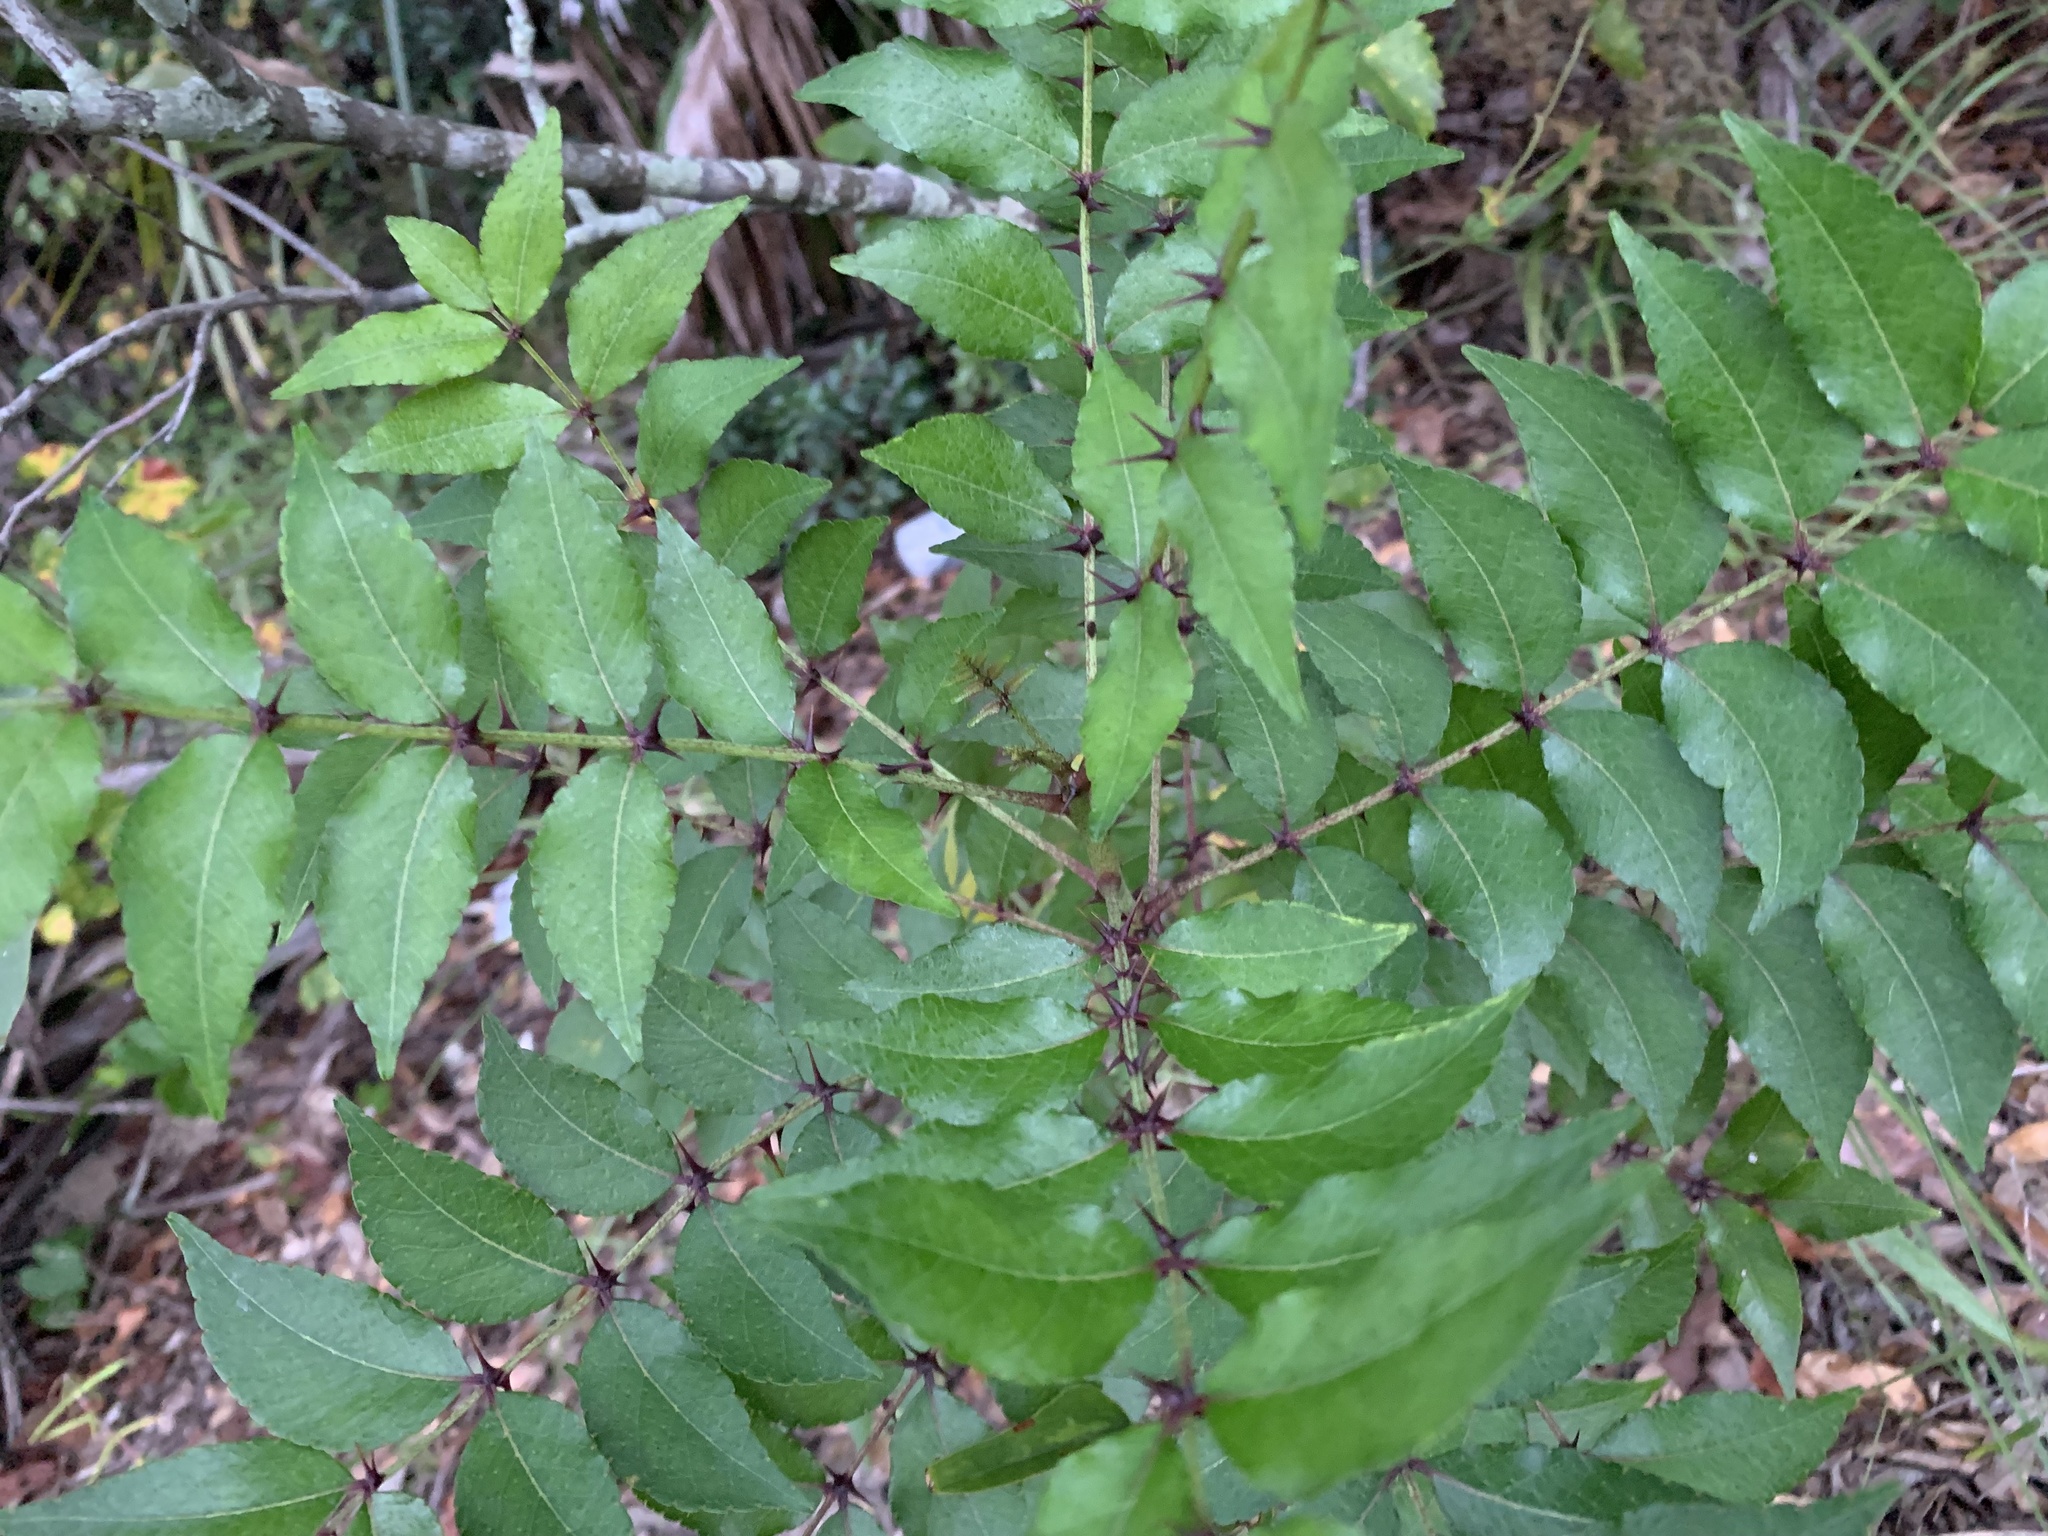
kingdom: Plantae
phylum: Tracheophyta
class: Magnoliopsida
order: Sapindales
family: Rutaceae
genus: Zanthoxylum
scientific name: Zanthoxylum clava-herculis
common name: Hercules'-club
